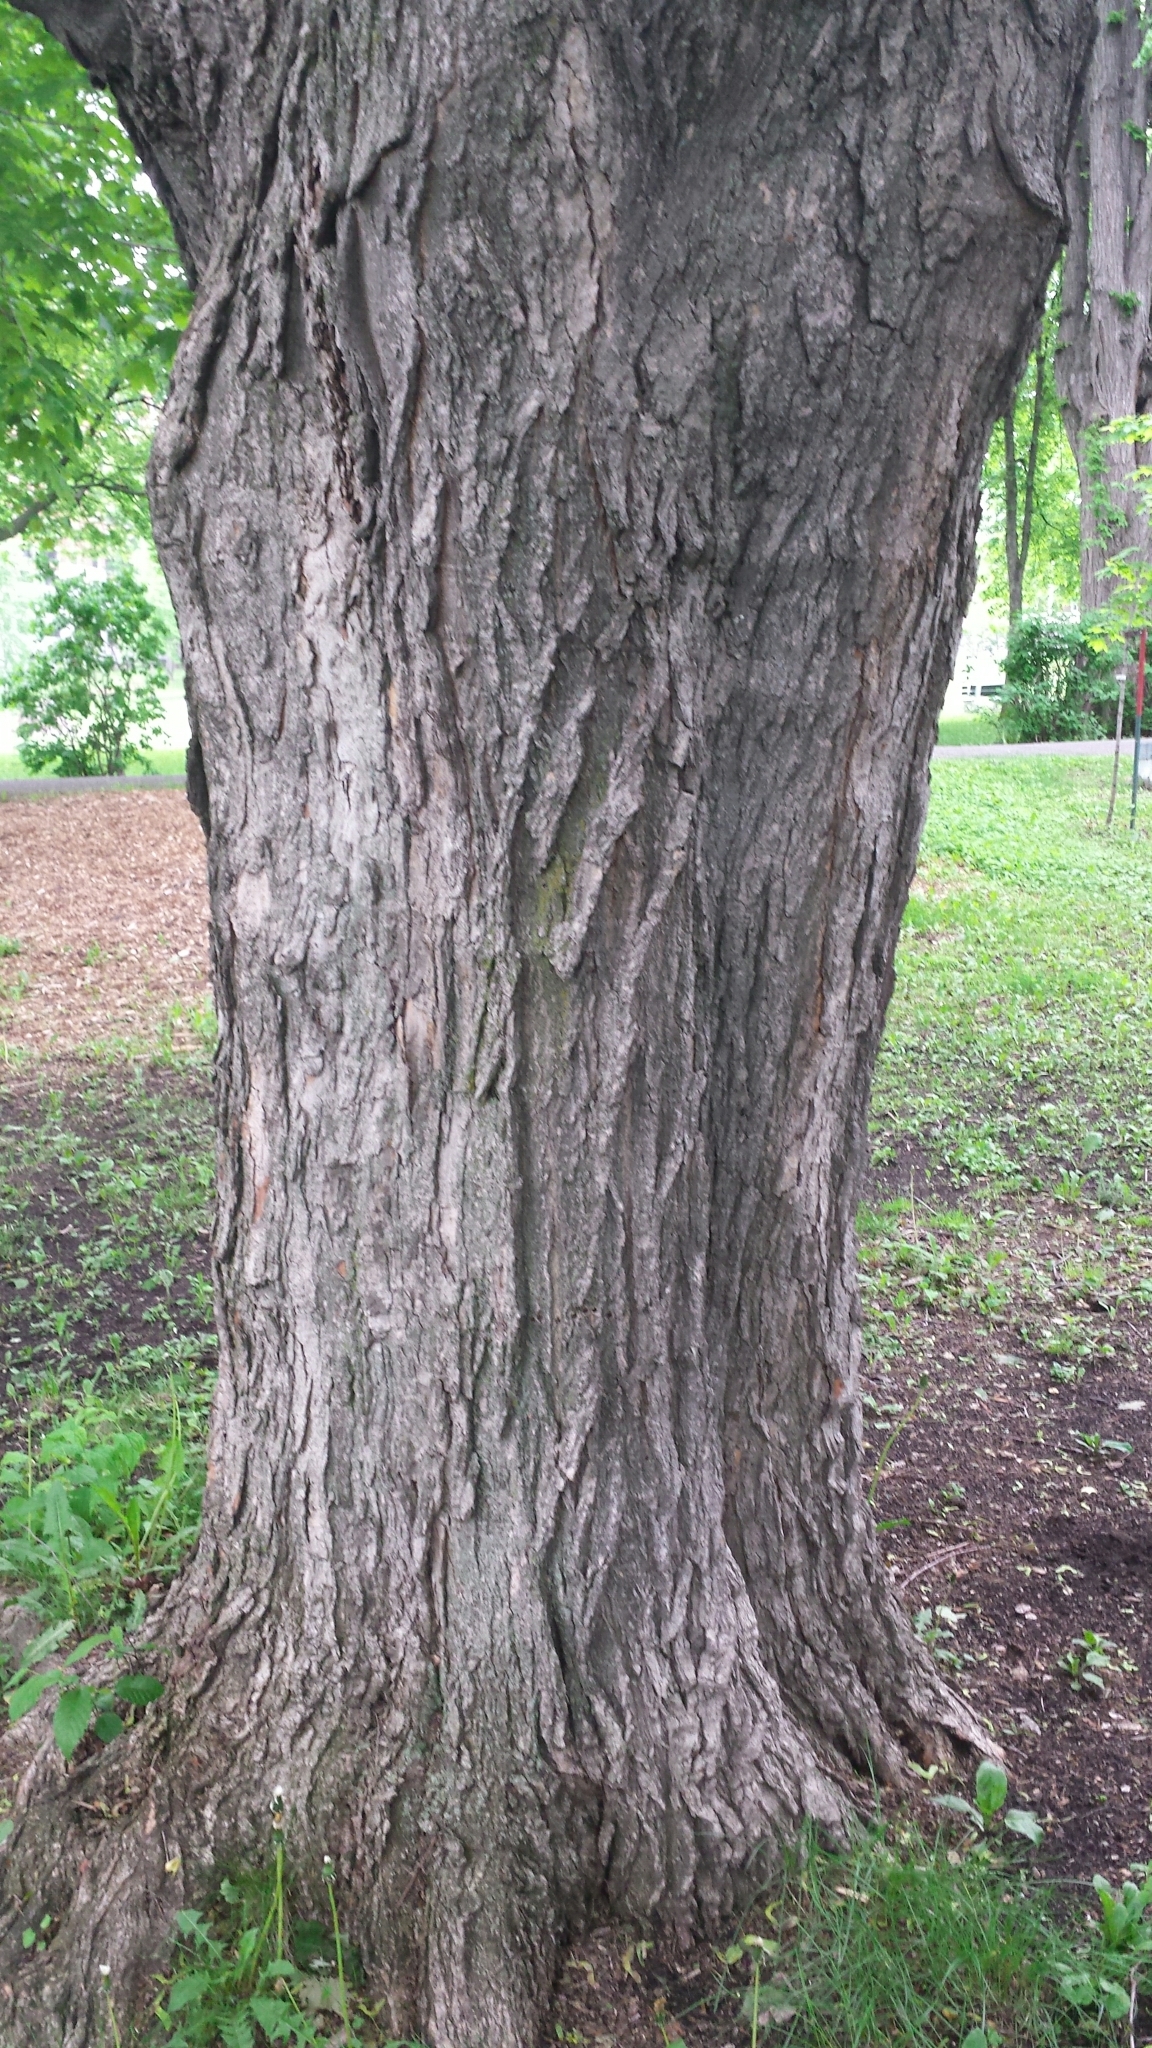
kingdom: Plantae
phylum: Tracheophyta
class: Magnoliopsida
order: Sapindales
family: Sapindaceae
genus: Acer
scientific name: Acer saccharum
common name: Sugar maple
